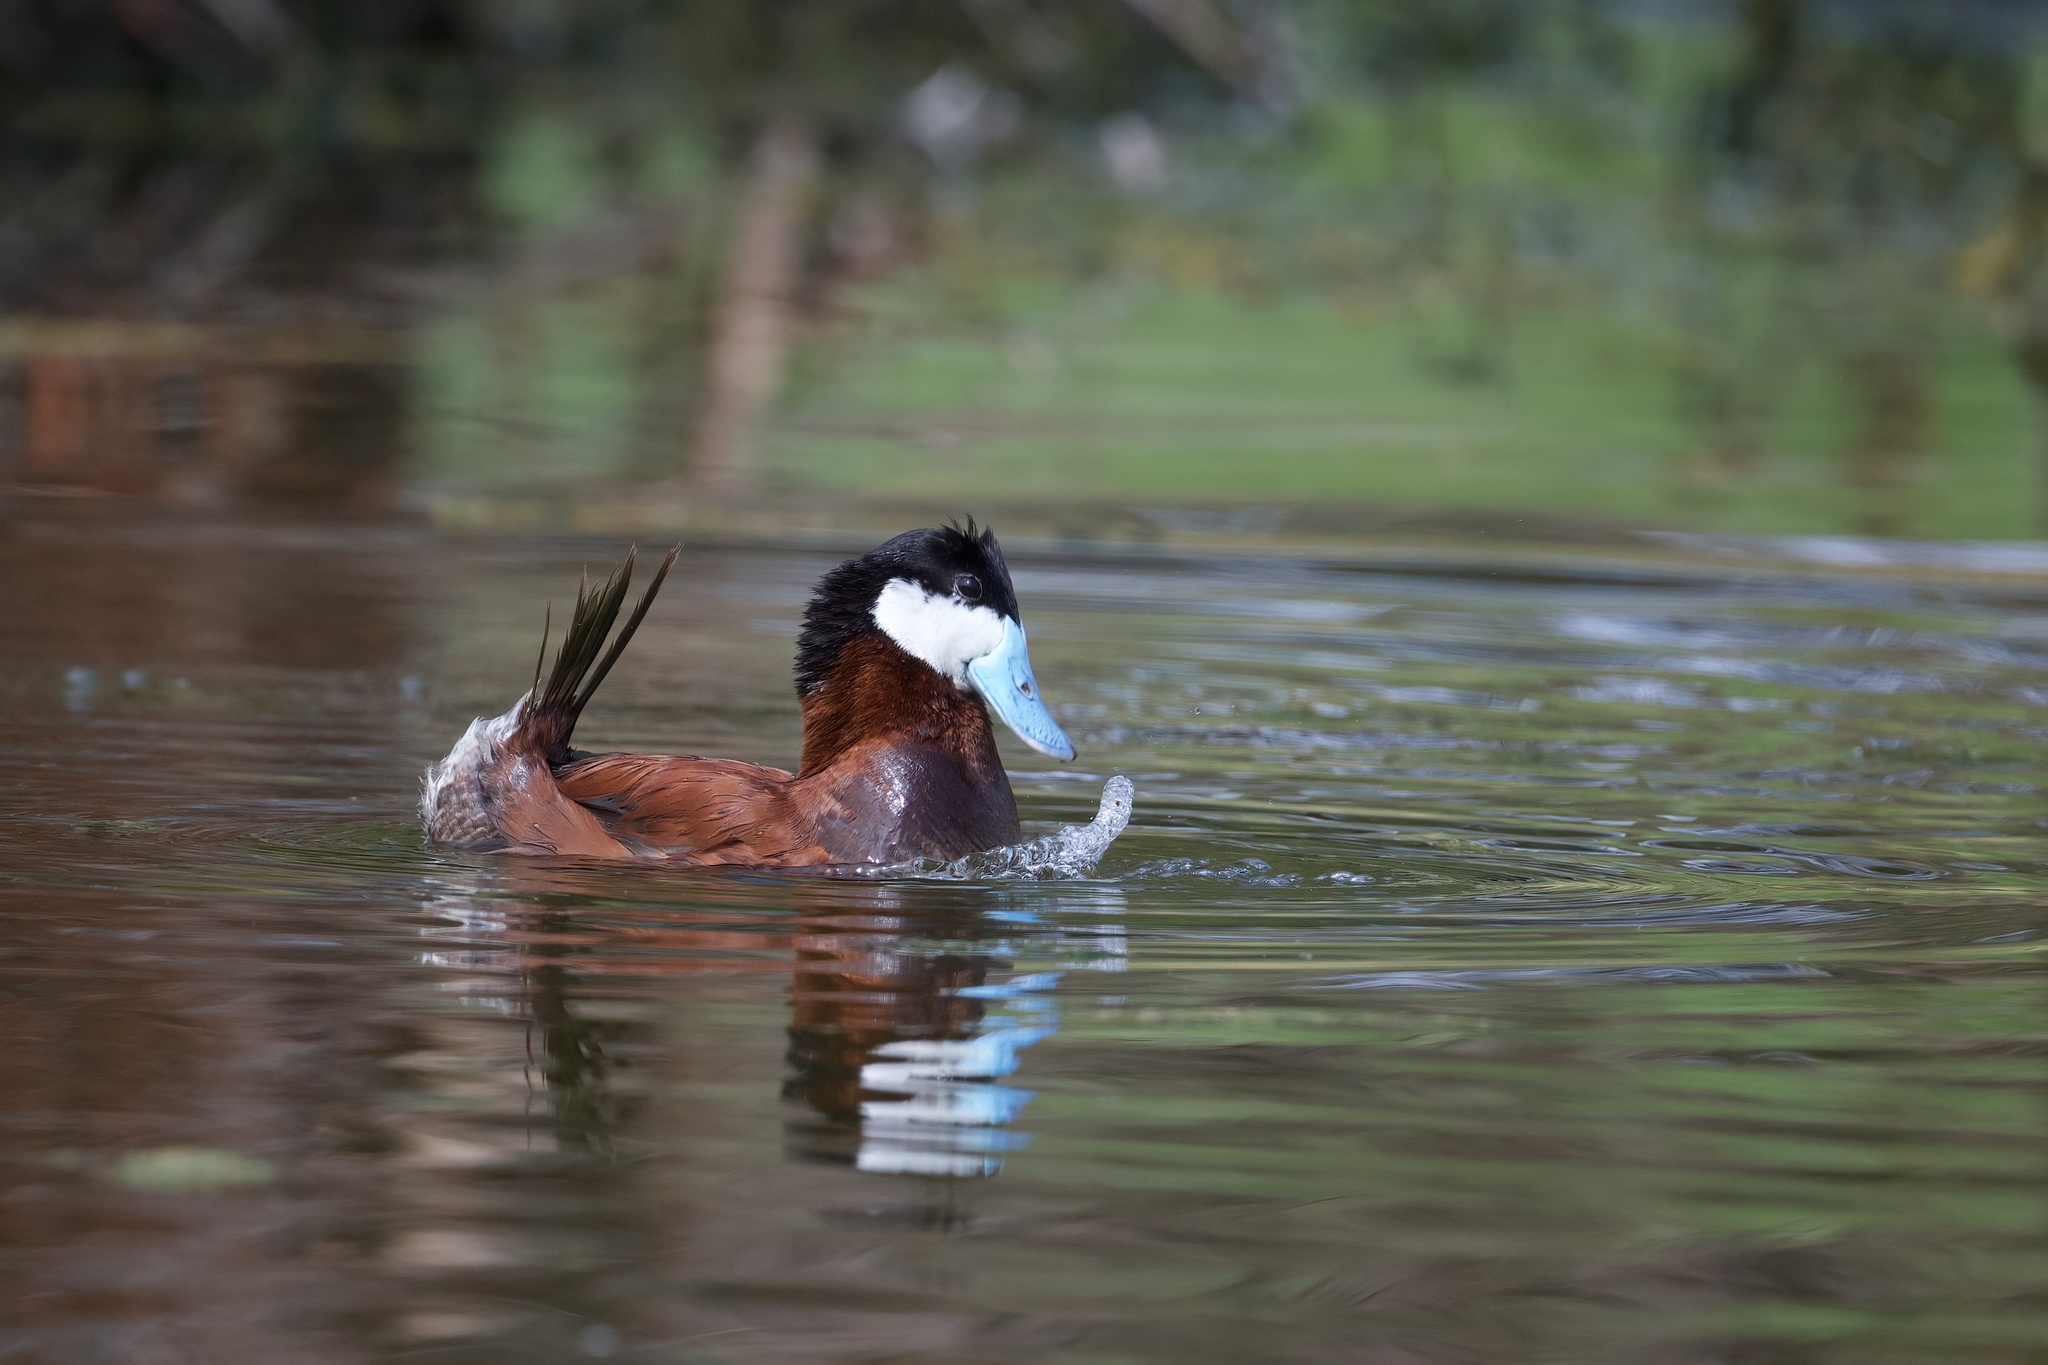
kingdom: Animalia
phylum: Chordata
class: Aves
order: Anseriformes
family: Anatidae
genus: Oxyura
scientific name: Oxyura jamaicensis
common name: Ruddy duck
